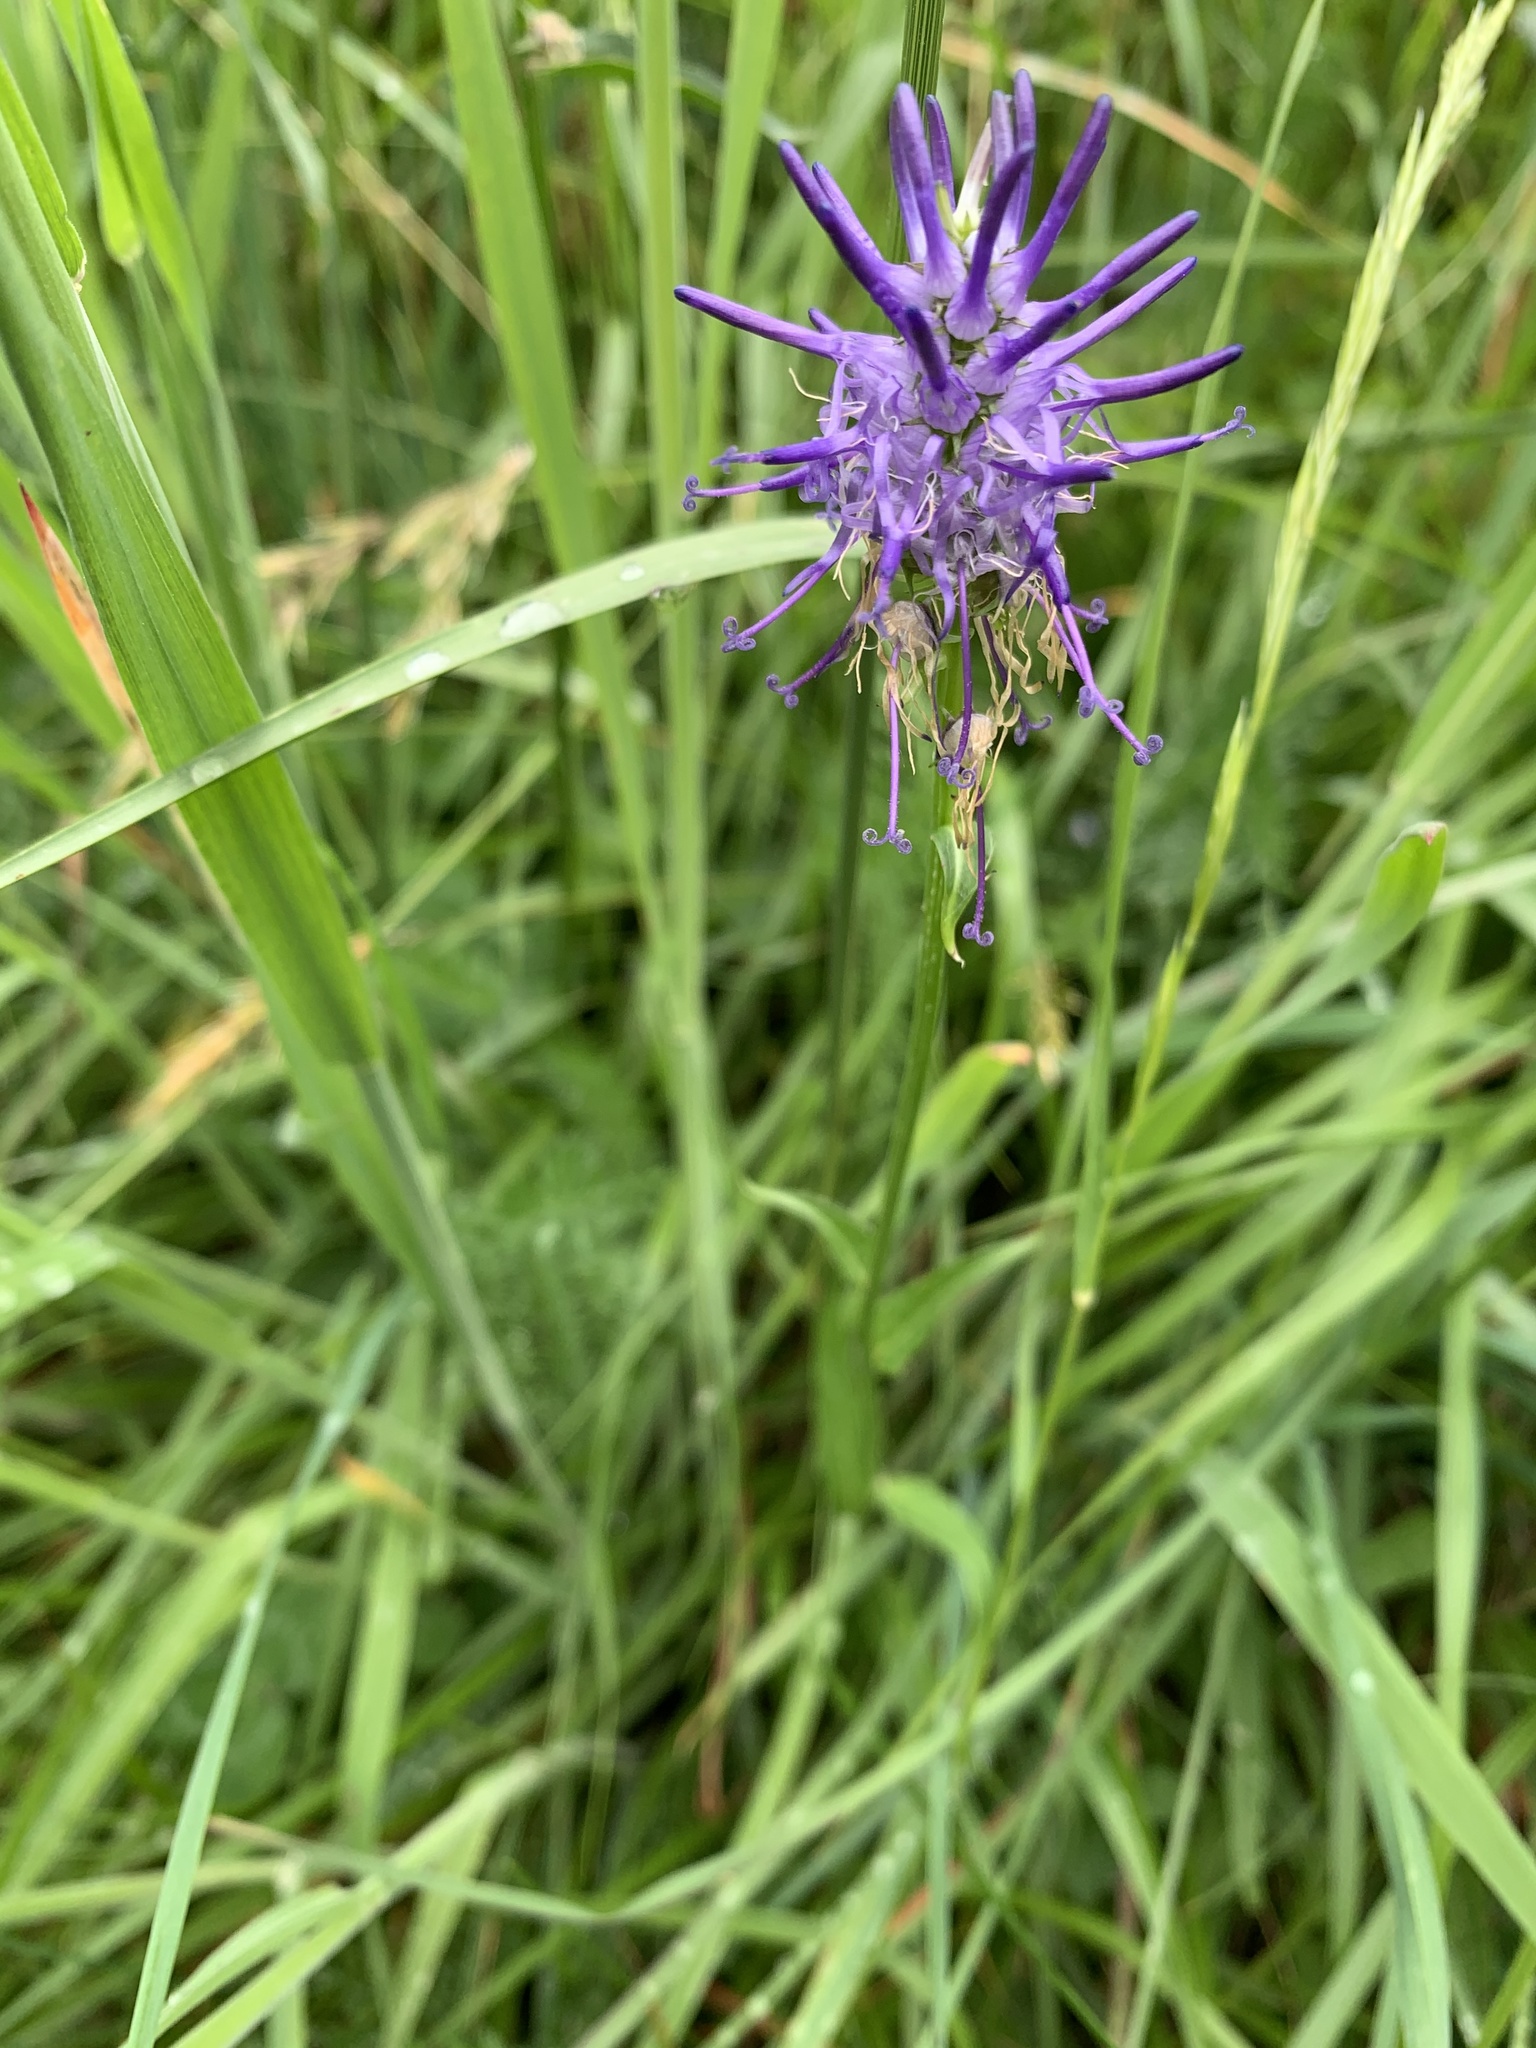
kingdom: Plantae
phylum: Tracheophyta
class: Magnoliopsida
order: Asterales
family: Campanulaceae
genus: Phyteuma
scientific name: Phyteuma betonicifolium
